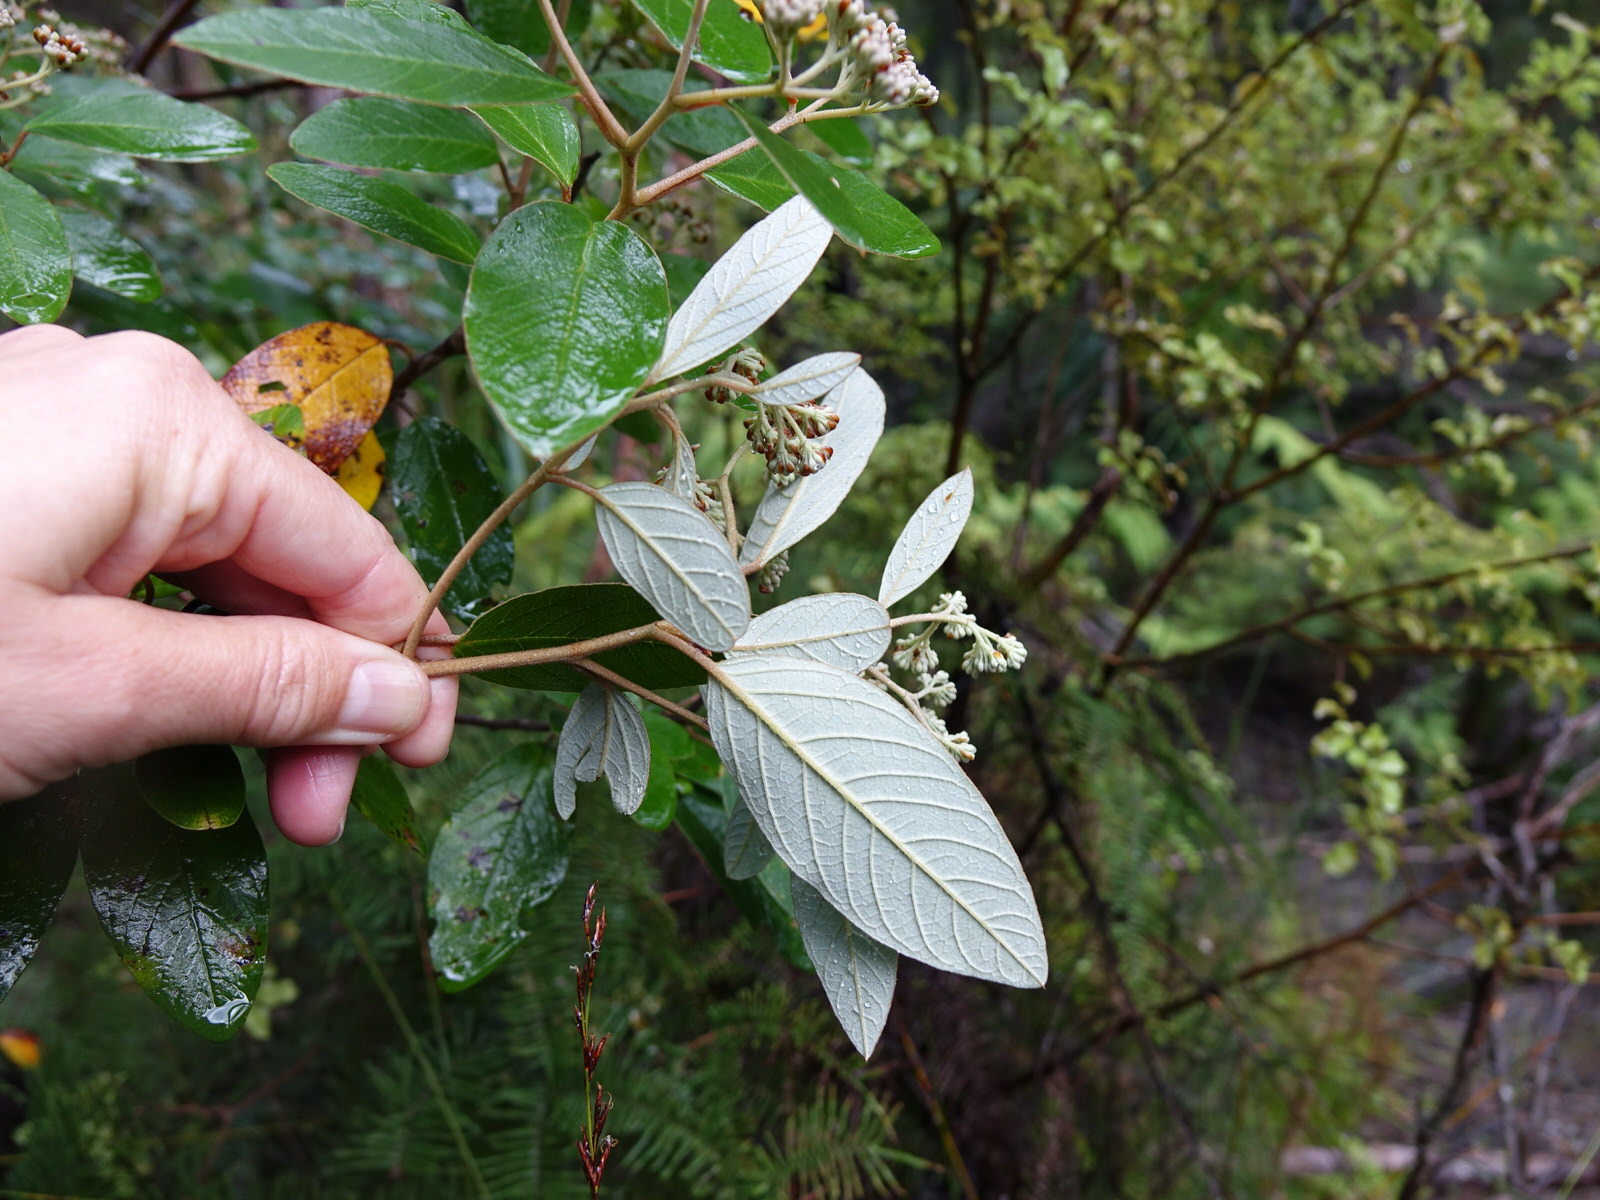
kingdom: Plantae
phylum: Tracheophyta
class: Magnoliopsida
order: Rosales
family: Rhamnaceae
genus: Pomaderris
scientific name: Pomaderris kumeraho
